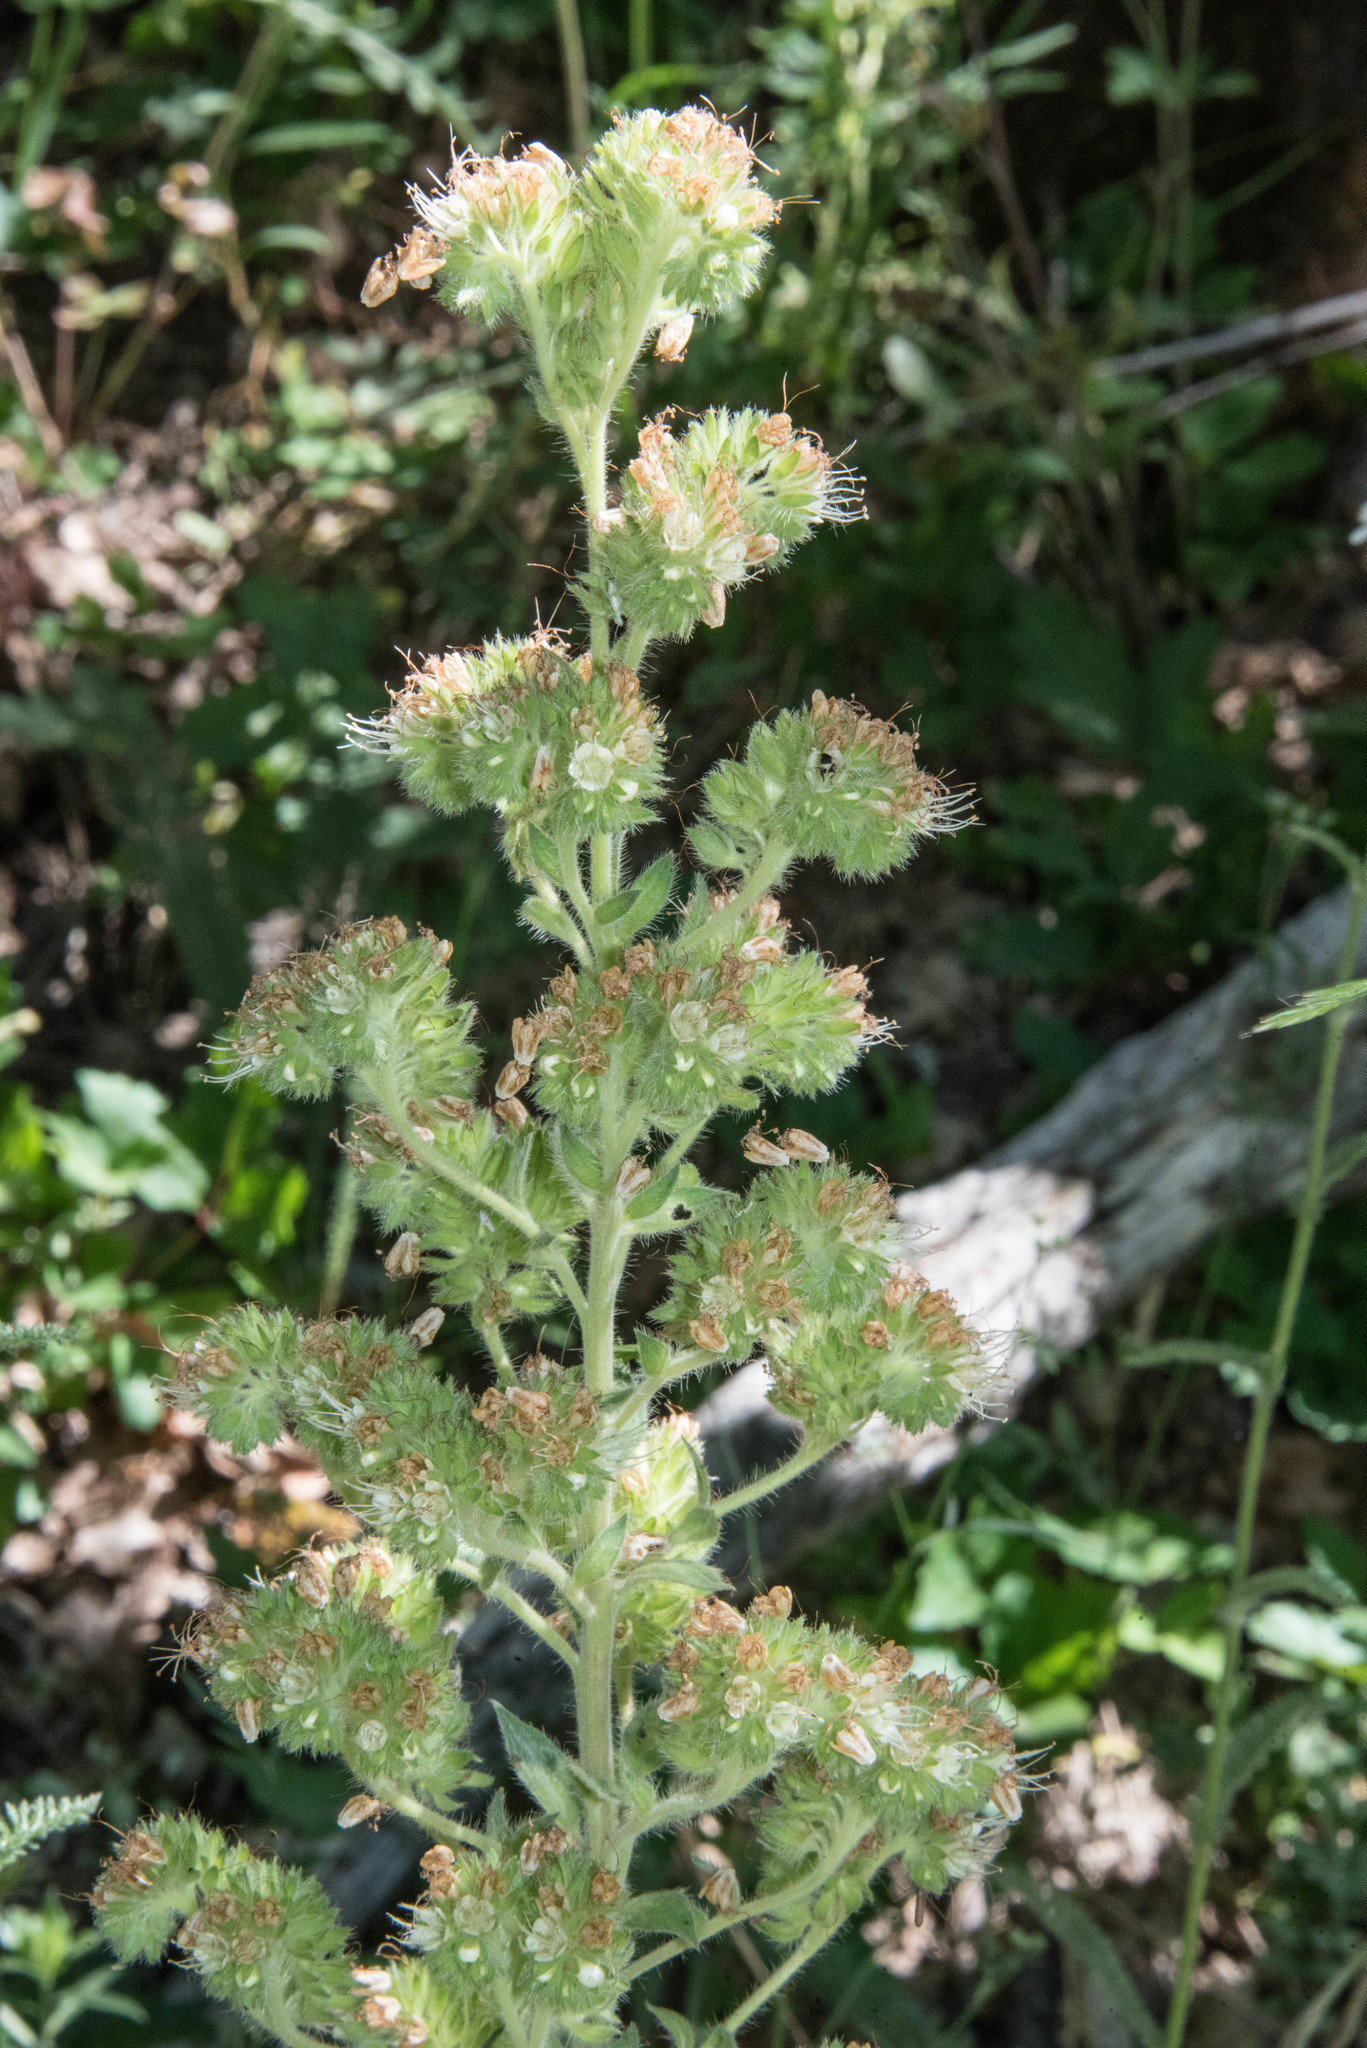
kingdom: Plantae
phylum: Tracheophyta
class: Magnoliopsida
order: Boraginales
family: Hydrophyllaceae
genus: Phacelia
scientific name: Phacelia heterophylla
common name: Variable-leaved phacelia
